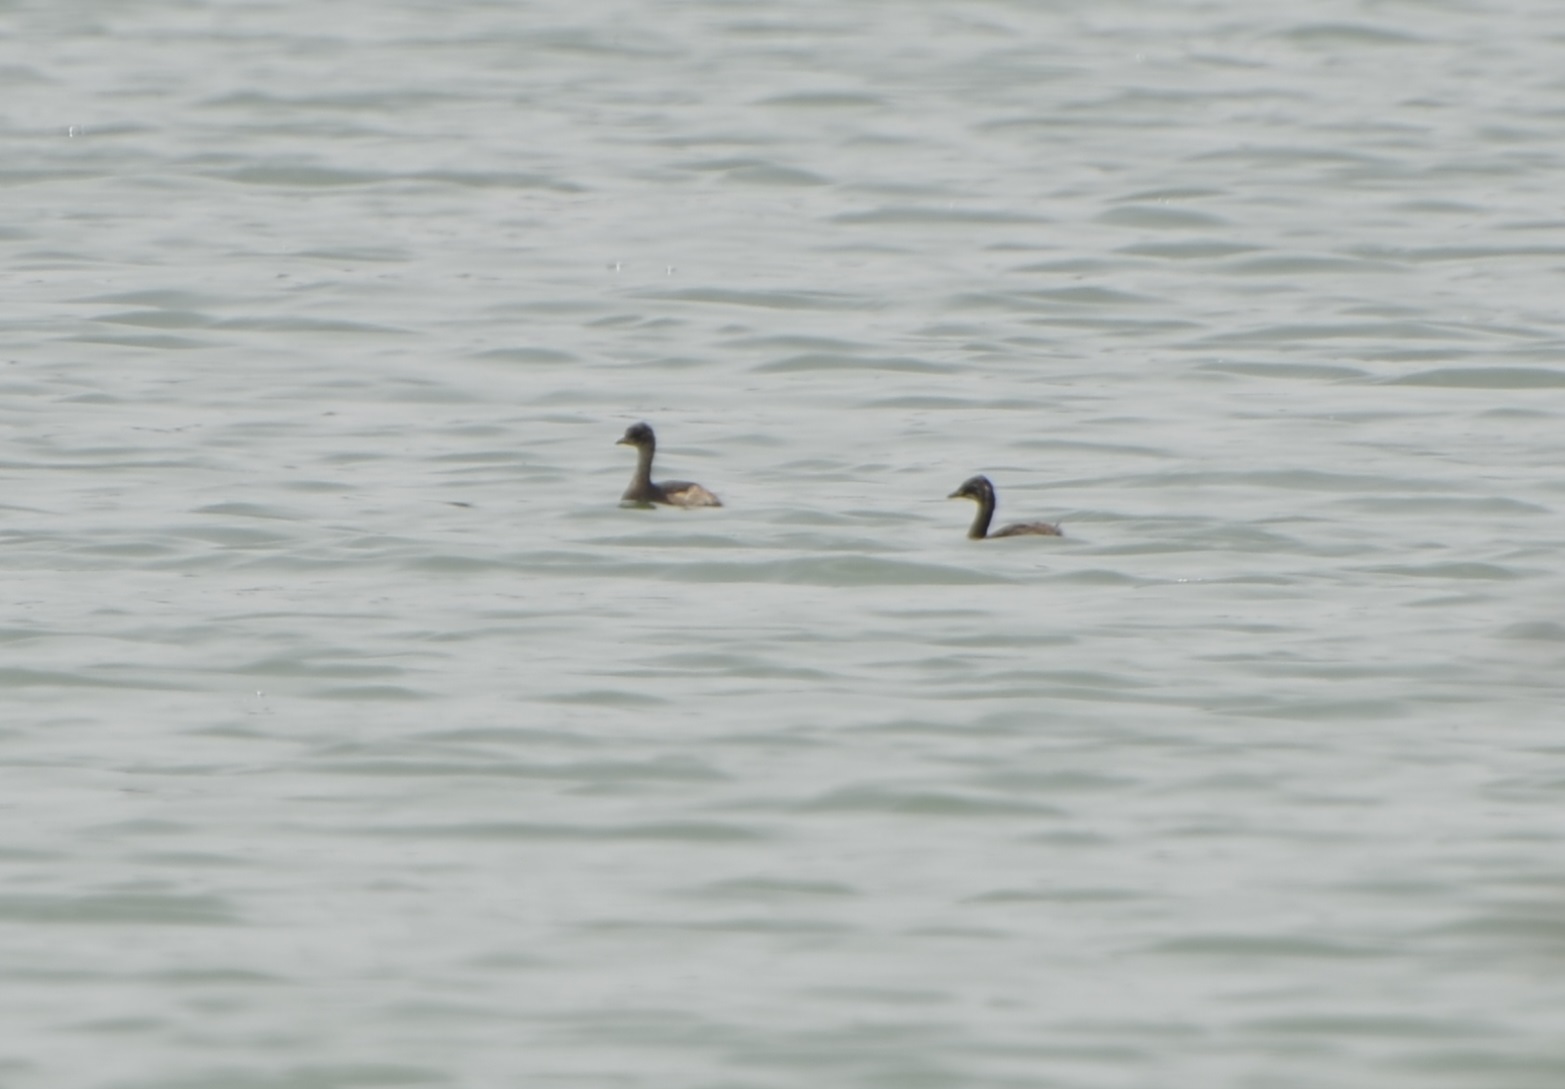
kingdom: Animalia
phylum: Chordata
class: Aves
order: Podicipediformes
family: Podicipedidae
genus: Tachybaptus
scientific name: Tachybaptus ruficollis
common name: Little grebe
